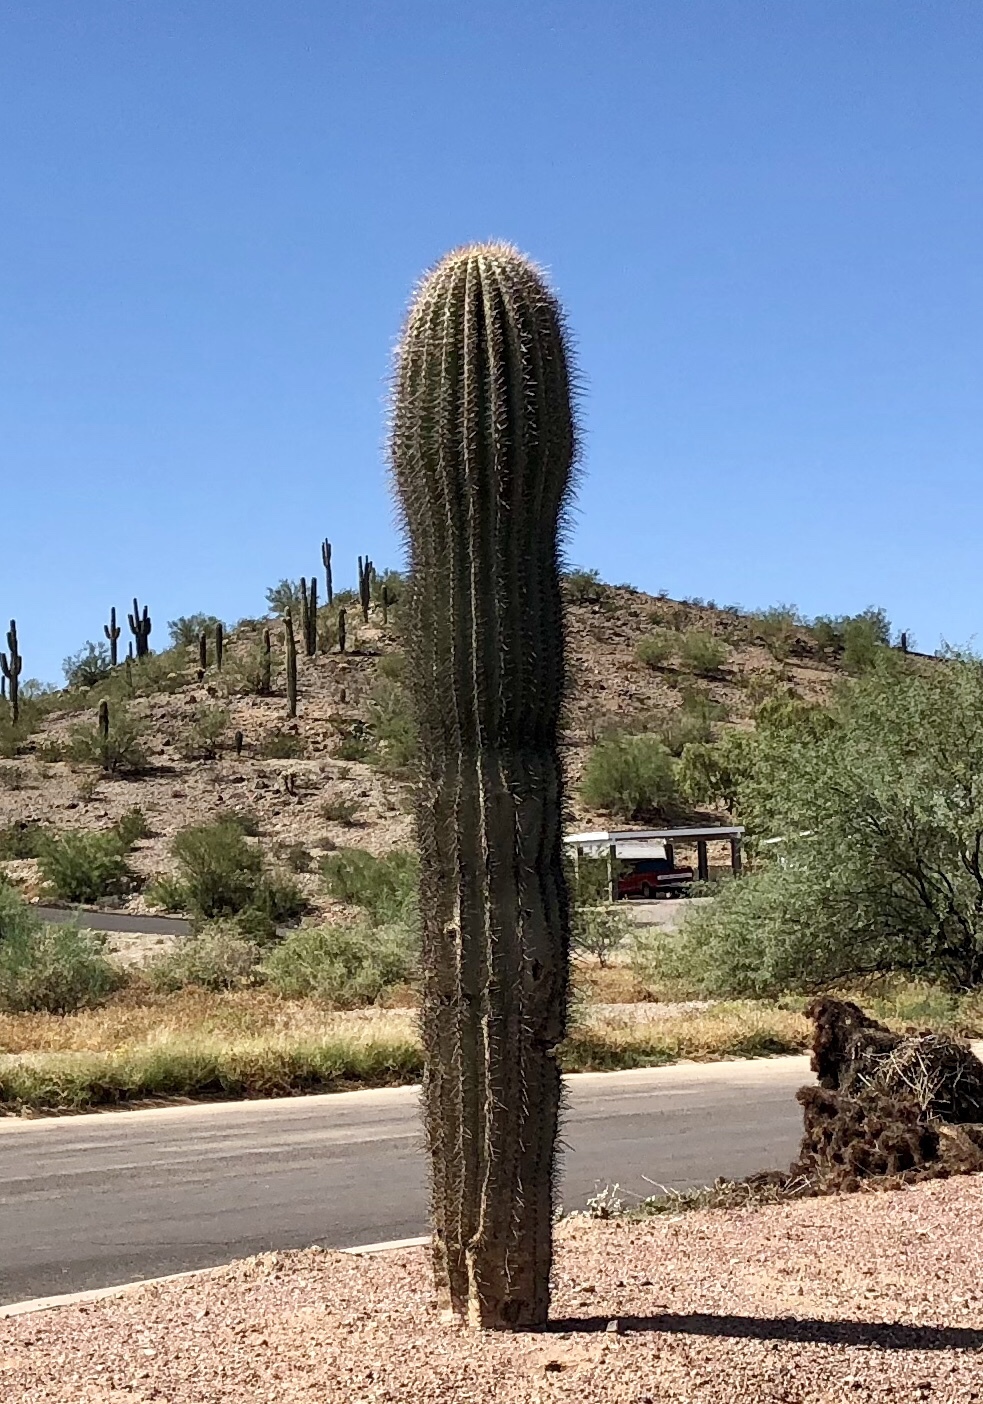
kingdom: Plantae
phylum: Tracheophyta
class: Magnoliopsida
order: Caryophyllales
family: Cactaceae
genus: Carnegiea
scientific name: Carnegiea gigantea
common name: Saguaro
